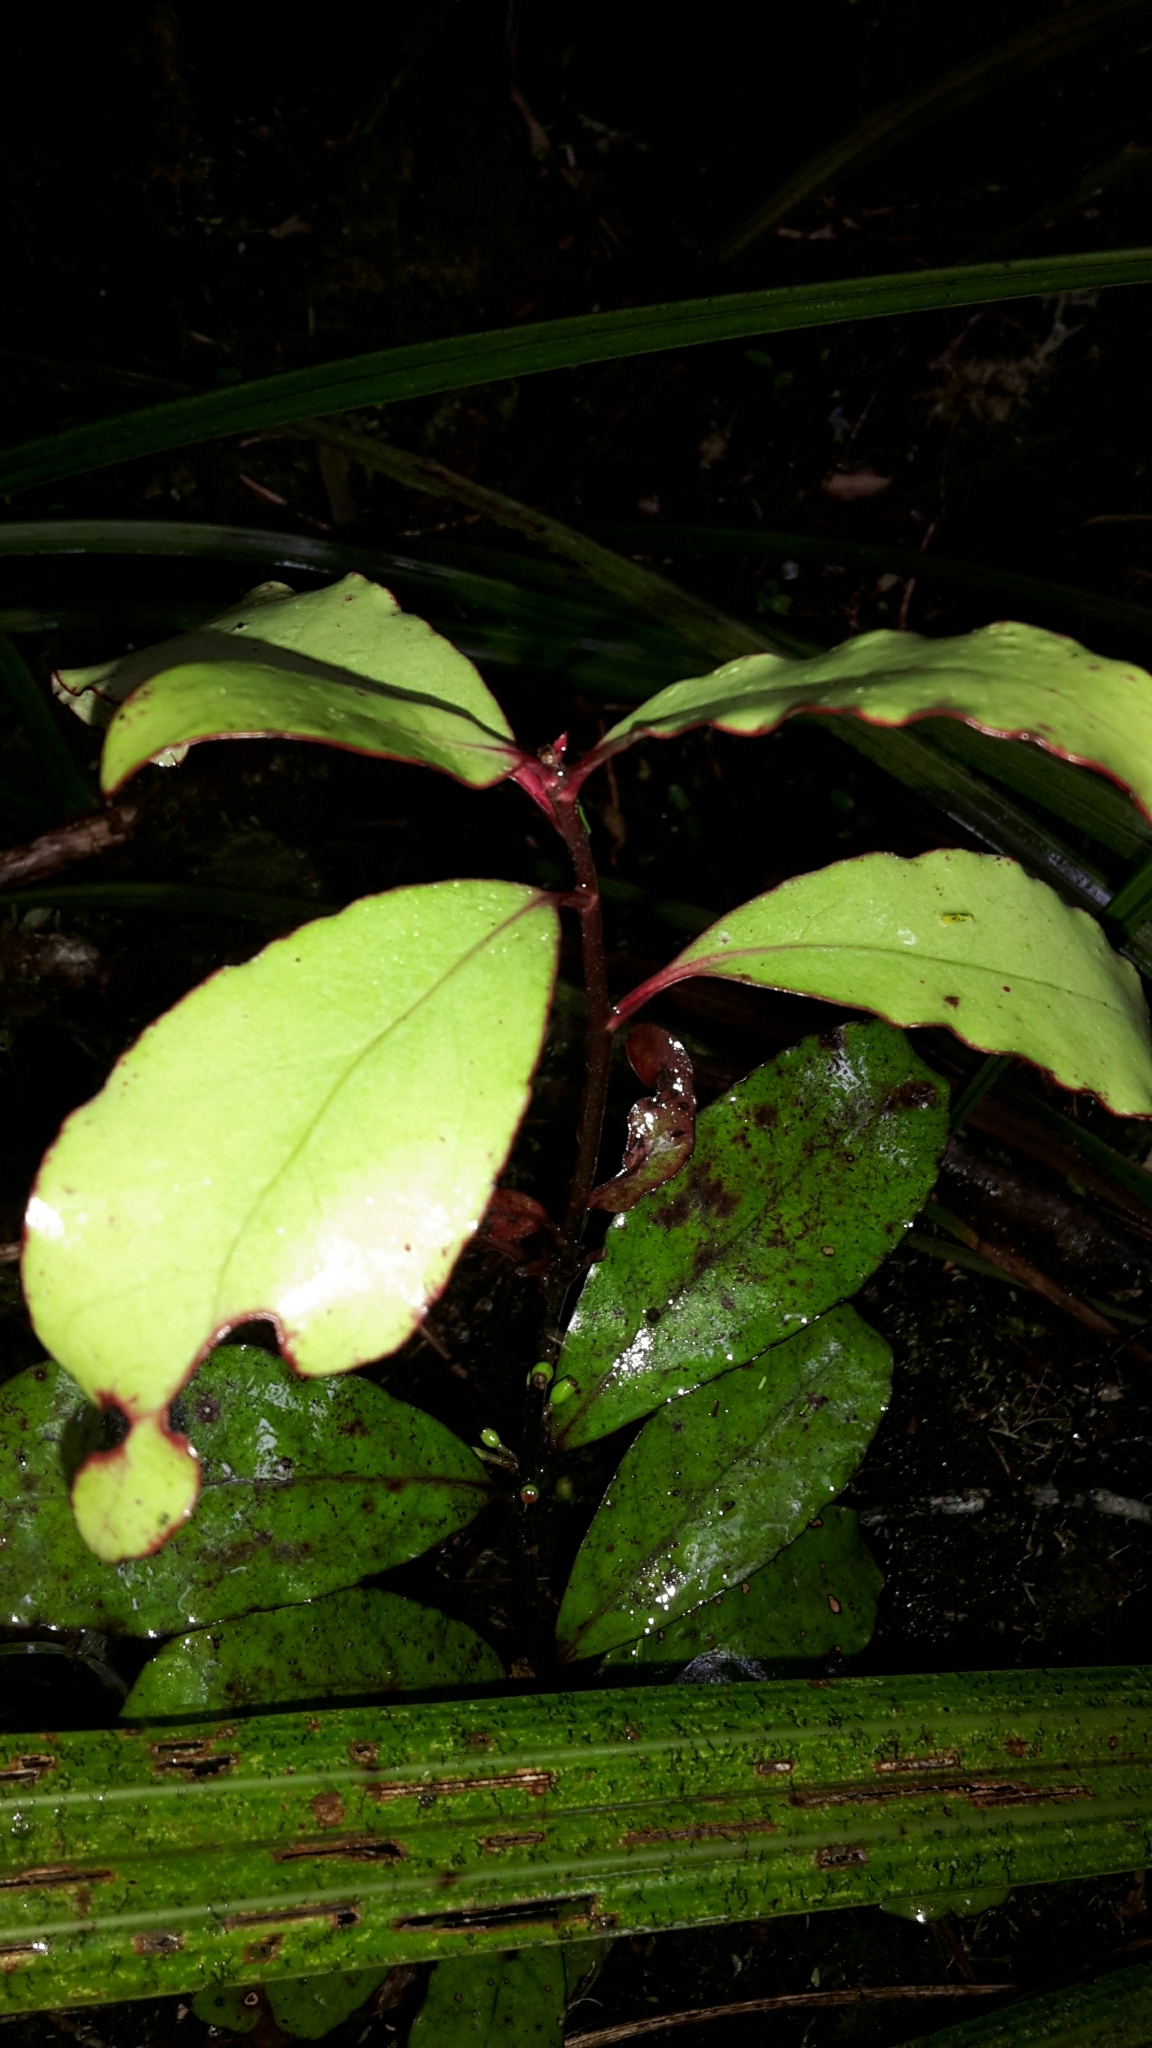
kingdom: Plantae
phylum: Tracheophyta
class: Magnoliopsida
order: Asterales
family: Alseuosmiaceae
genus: Alseuosmia
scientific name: Alseuosmia pusilla
